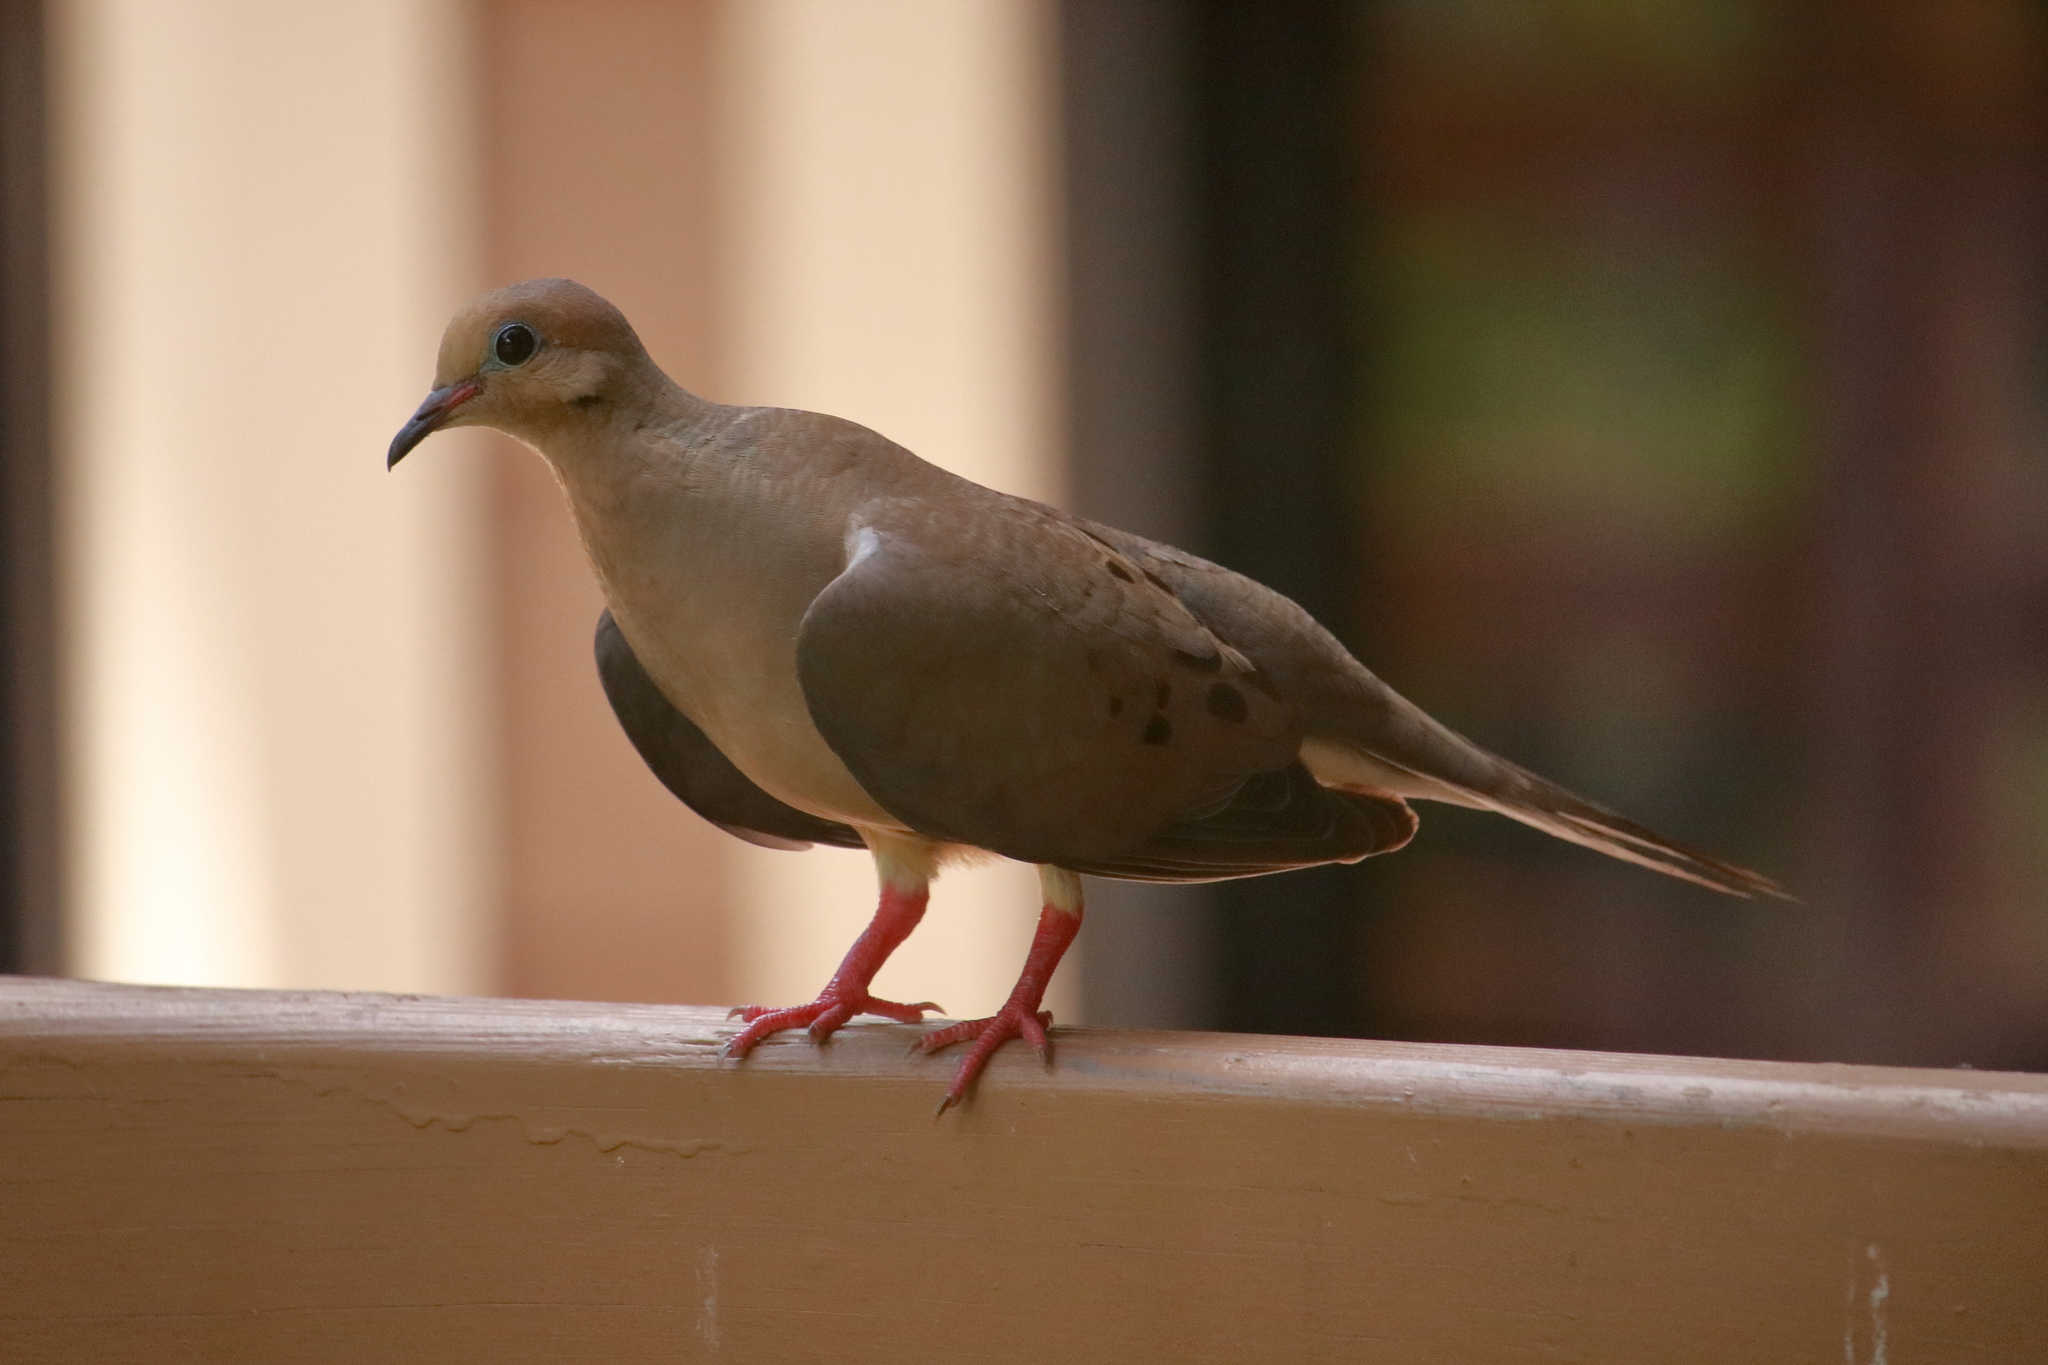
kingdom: Animalia
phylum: Chordata
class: Aves
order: Columbiformes
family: Columbidae
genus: Zenaida
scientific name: Zenaida macroura
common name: Mourning dove
